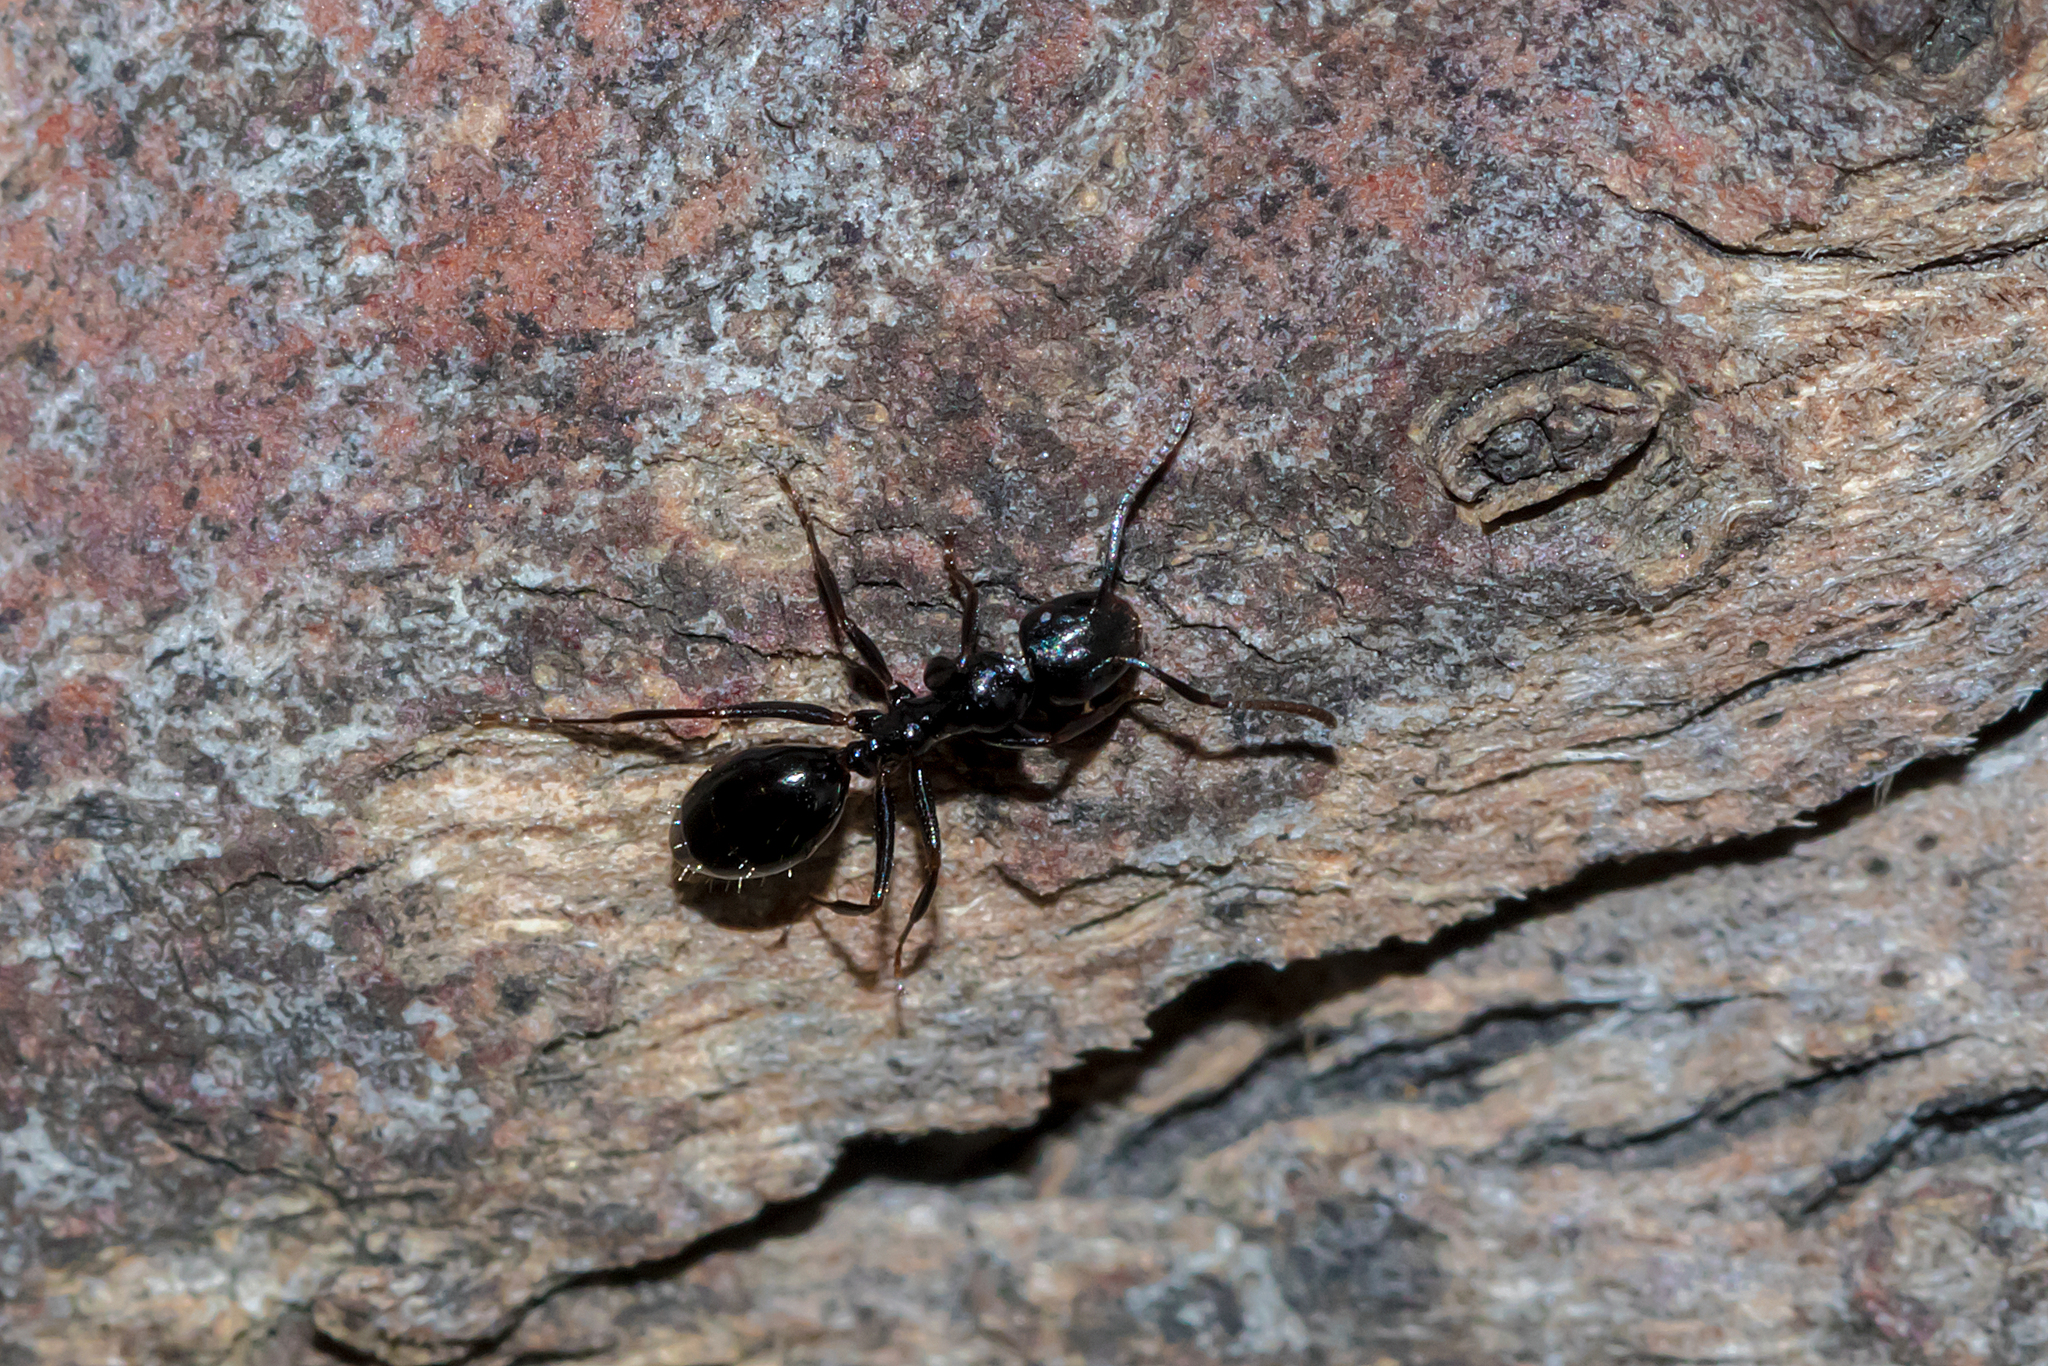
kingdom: Animalia
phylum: Arthropoda
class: Insecta
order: Hymenoptera
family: Formicidae
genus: Colobopsis
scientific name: Colobopsis gasseri
